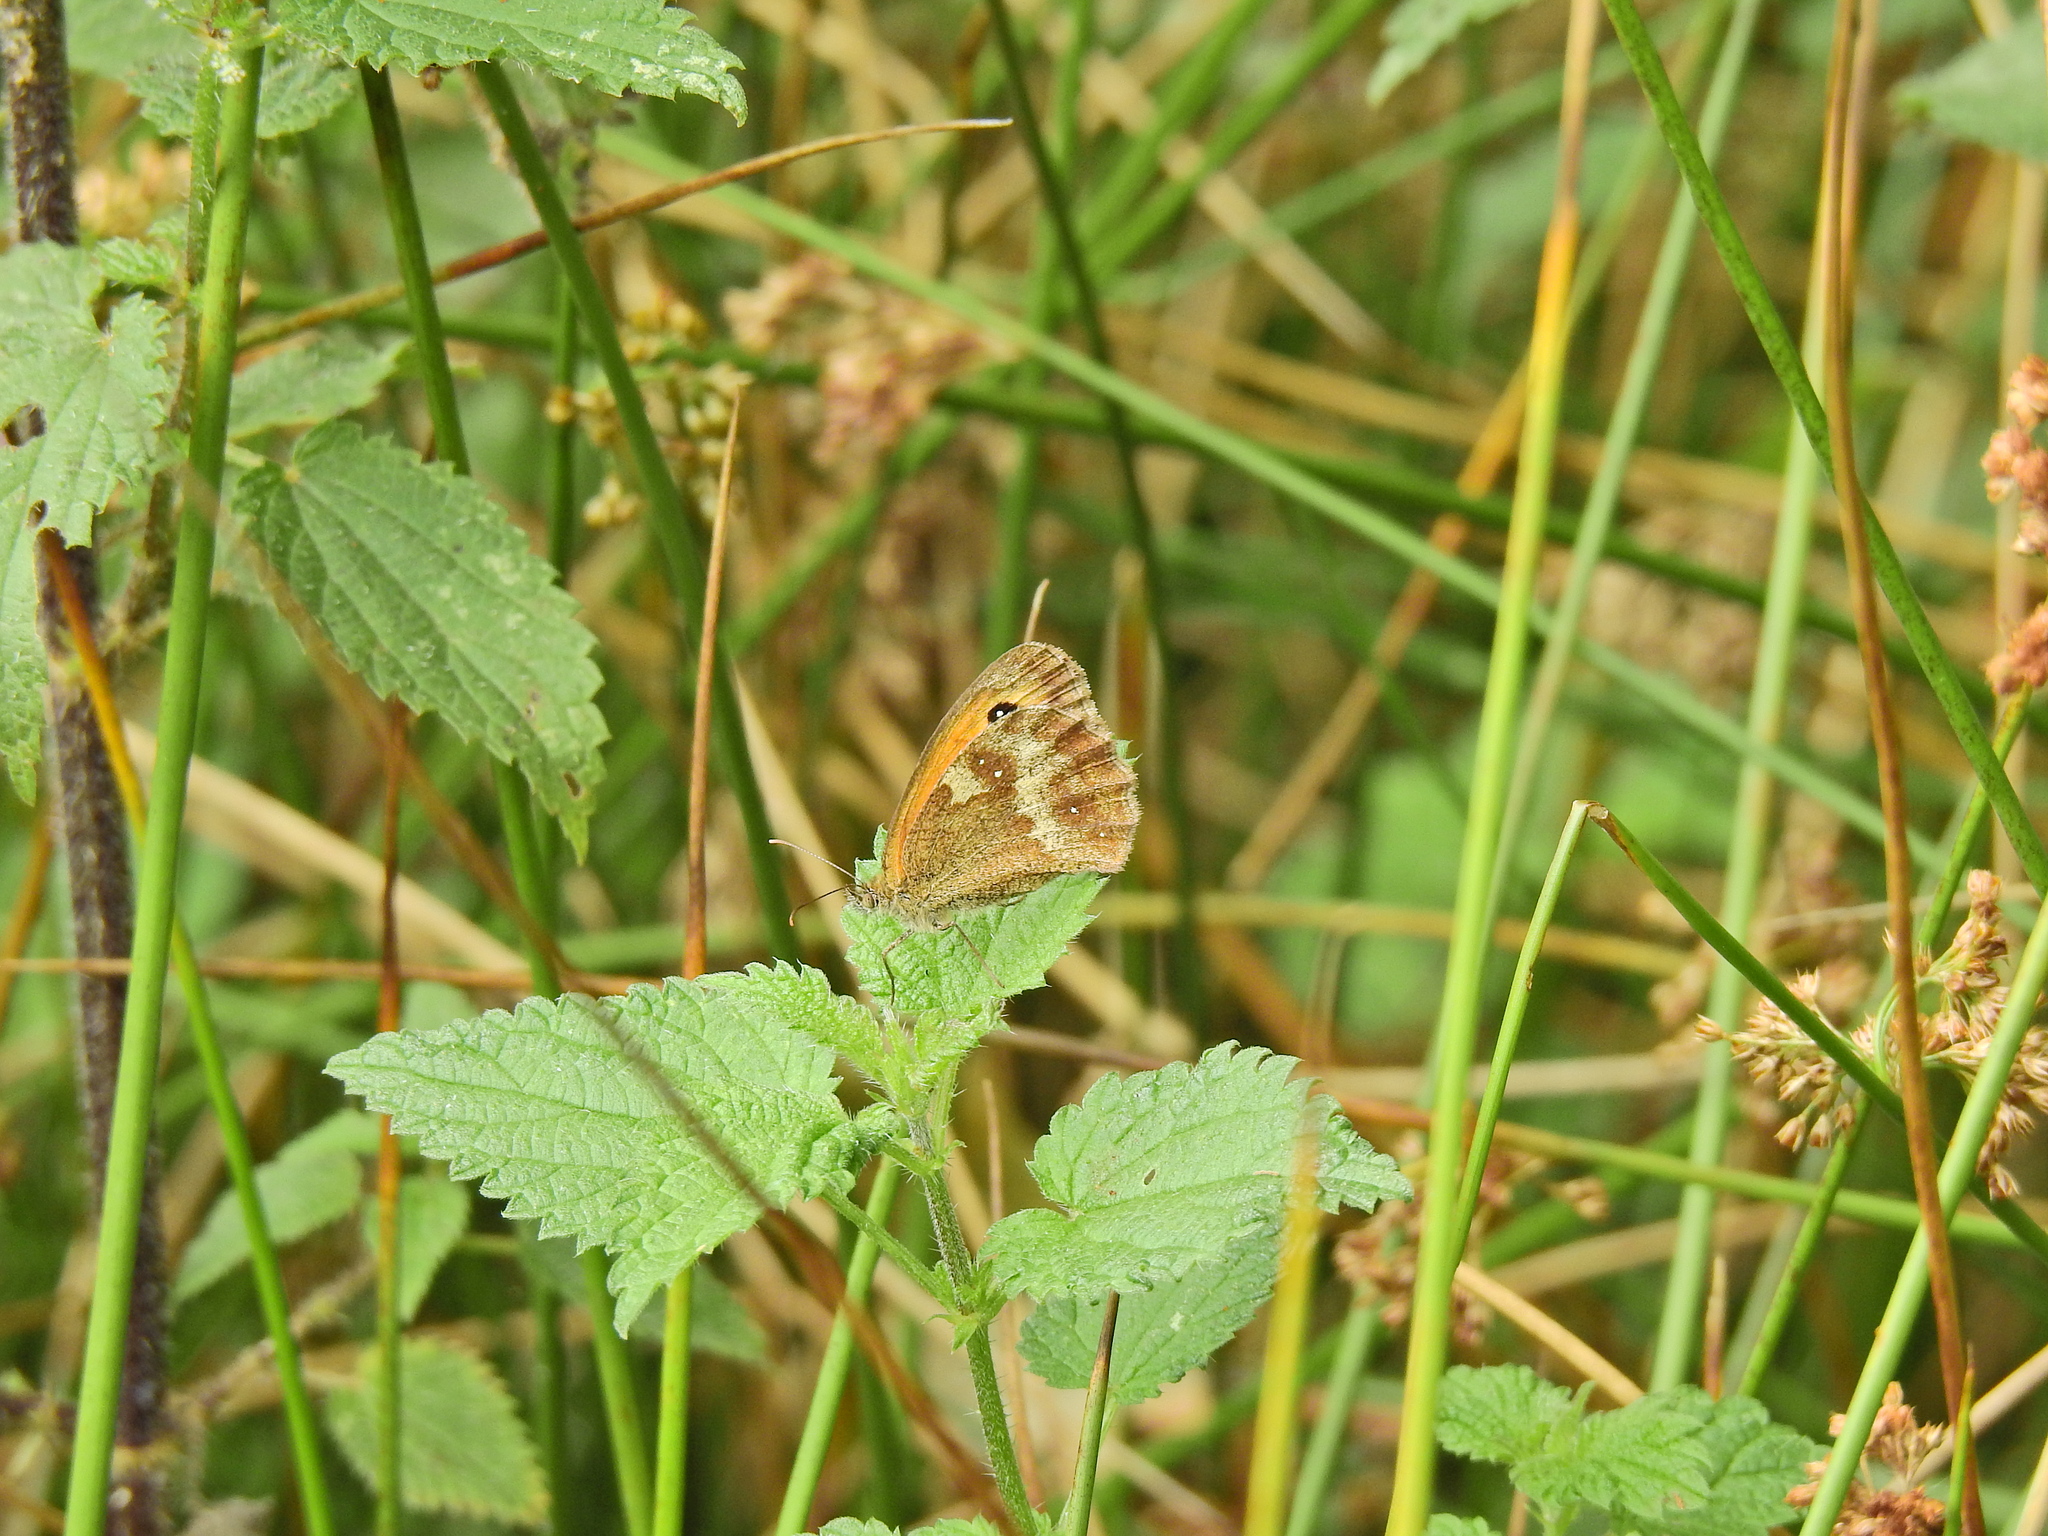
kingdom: Animalia
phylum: Arthropoda
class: Insecta
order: Lepidoptera
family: Nymphalidae
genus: Pyronia
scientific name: Pyronia tithonus
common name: Gatekeeper
